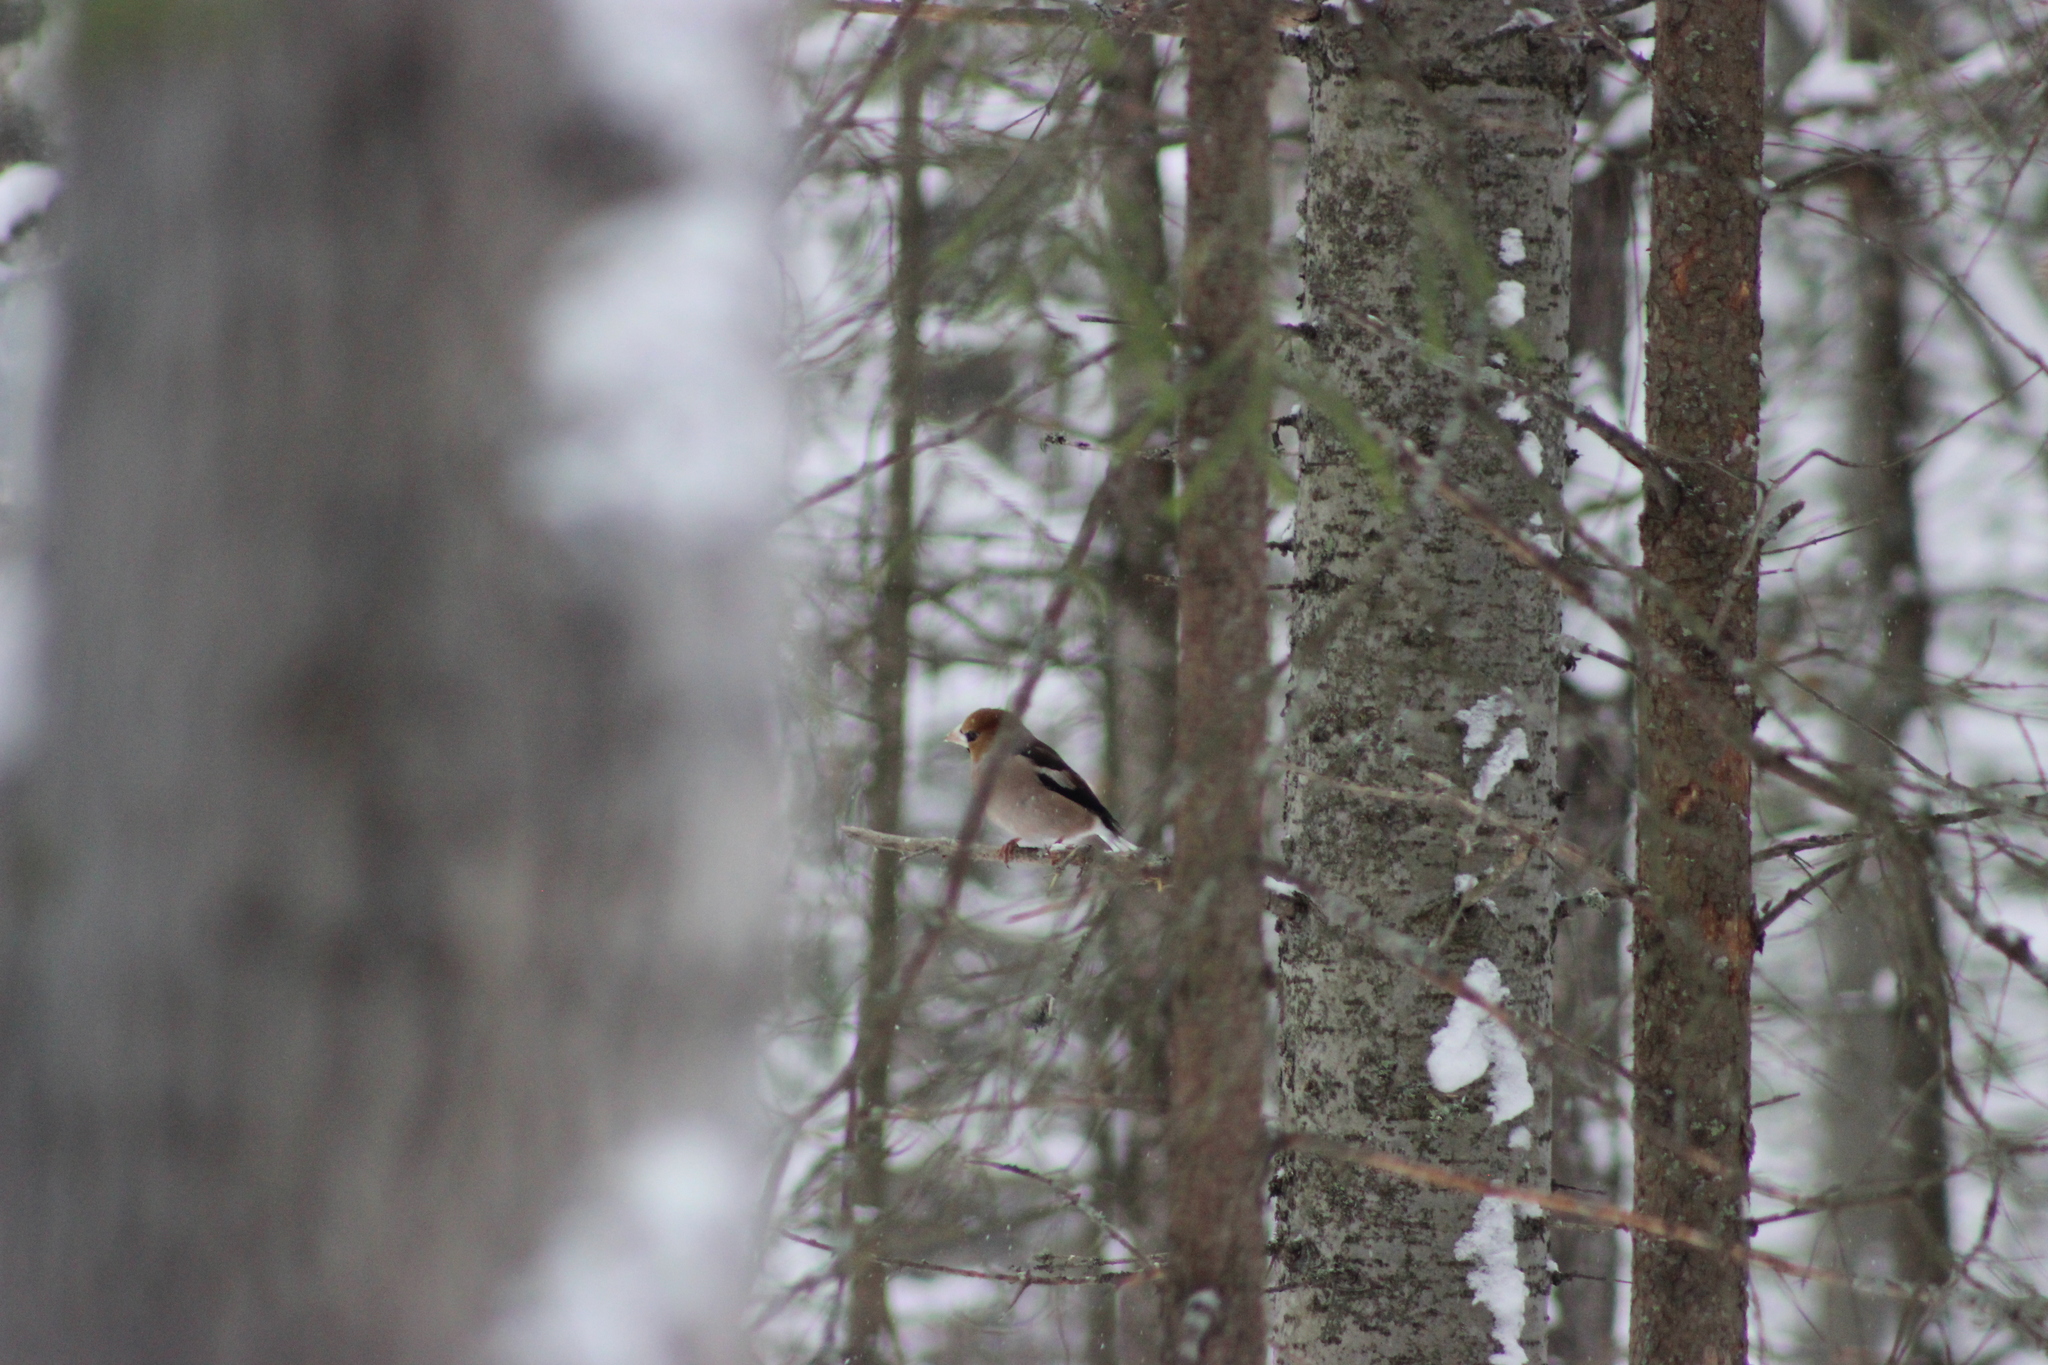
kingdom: Animalia
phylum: Chordata
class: Aves
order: Passeriformes
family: Fringillidae
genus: Coccothraustes
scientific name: Coccothraustes coccothraustes
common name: Hawfinch
